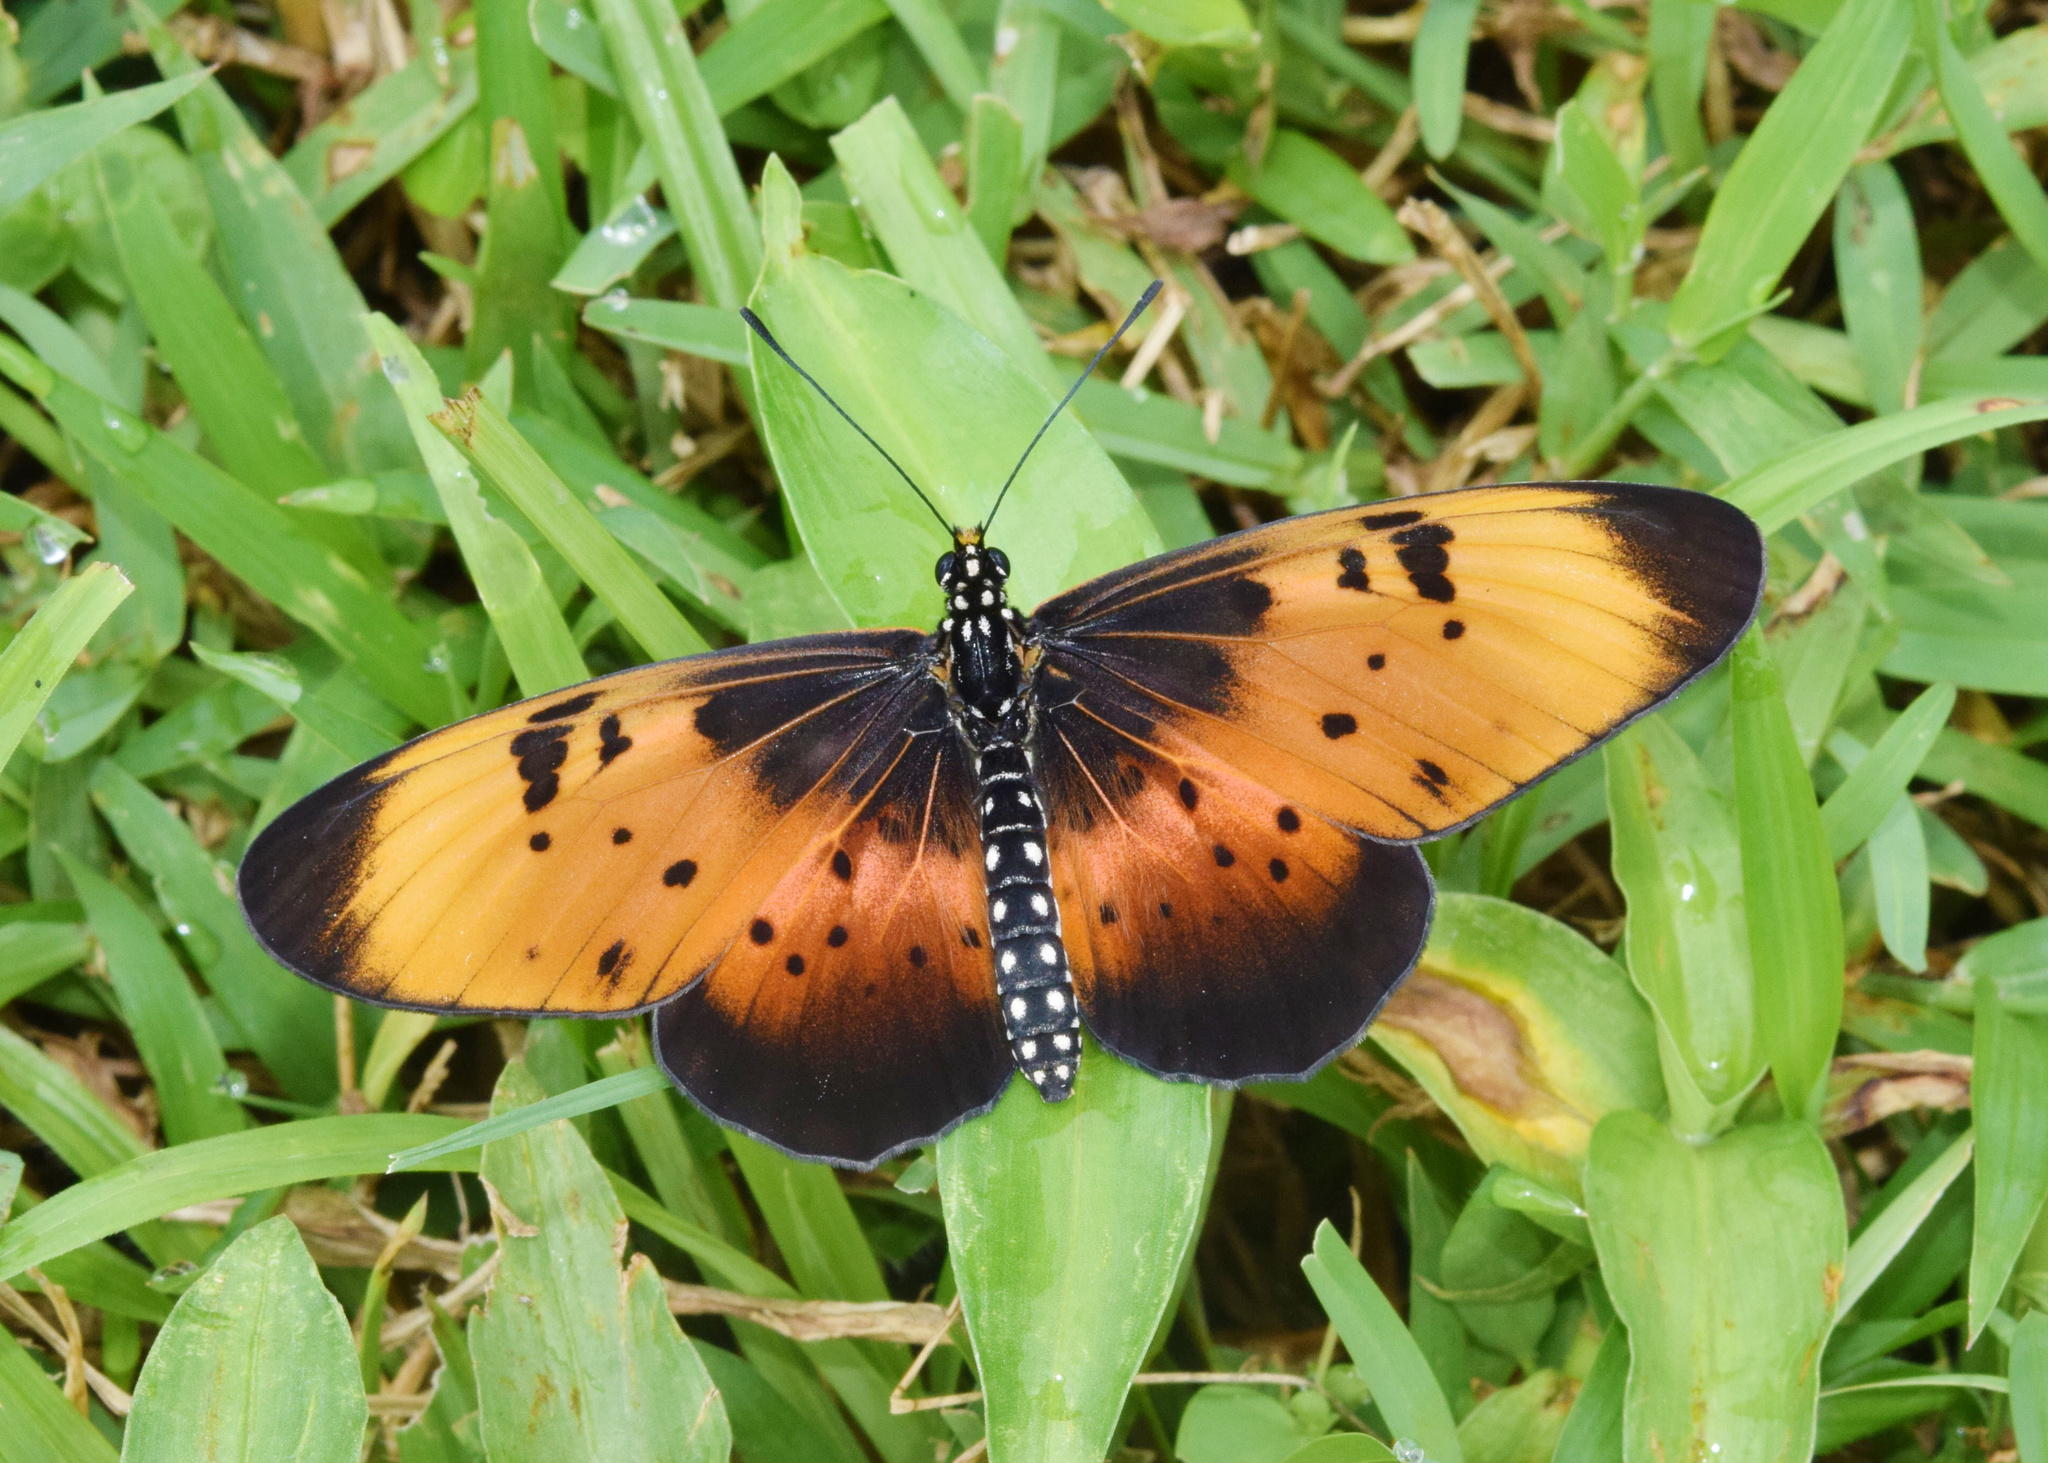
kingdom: Animalia
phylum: Arthropoda
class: Insecta
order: Lepidoptera
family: Nymphalidae
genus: Stephenia
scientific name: Stephenia
